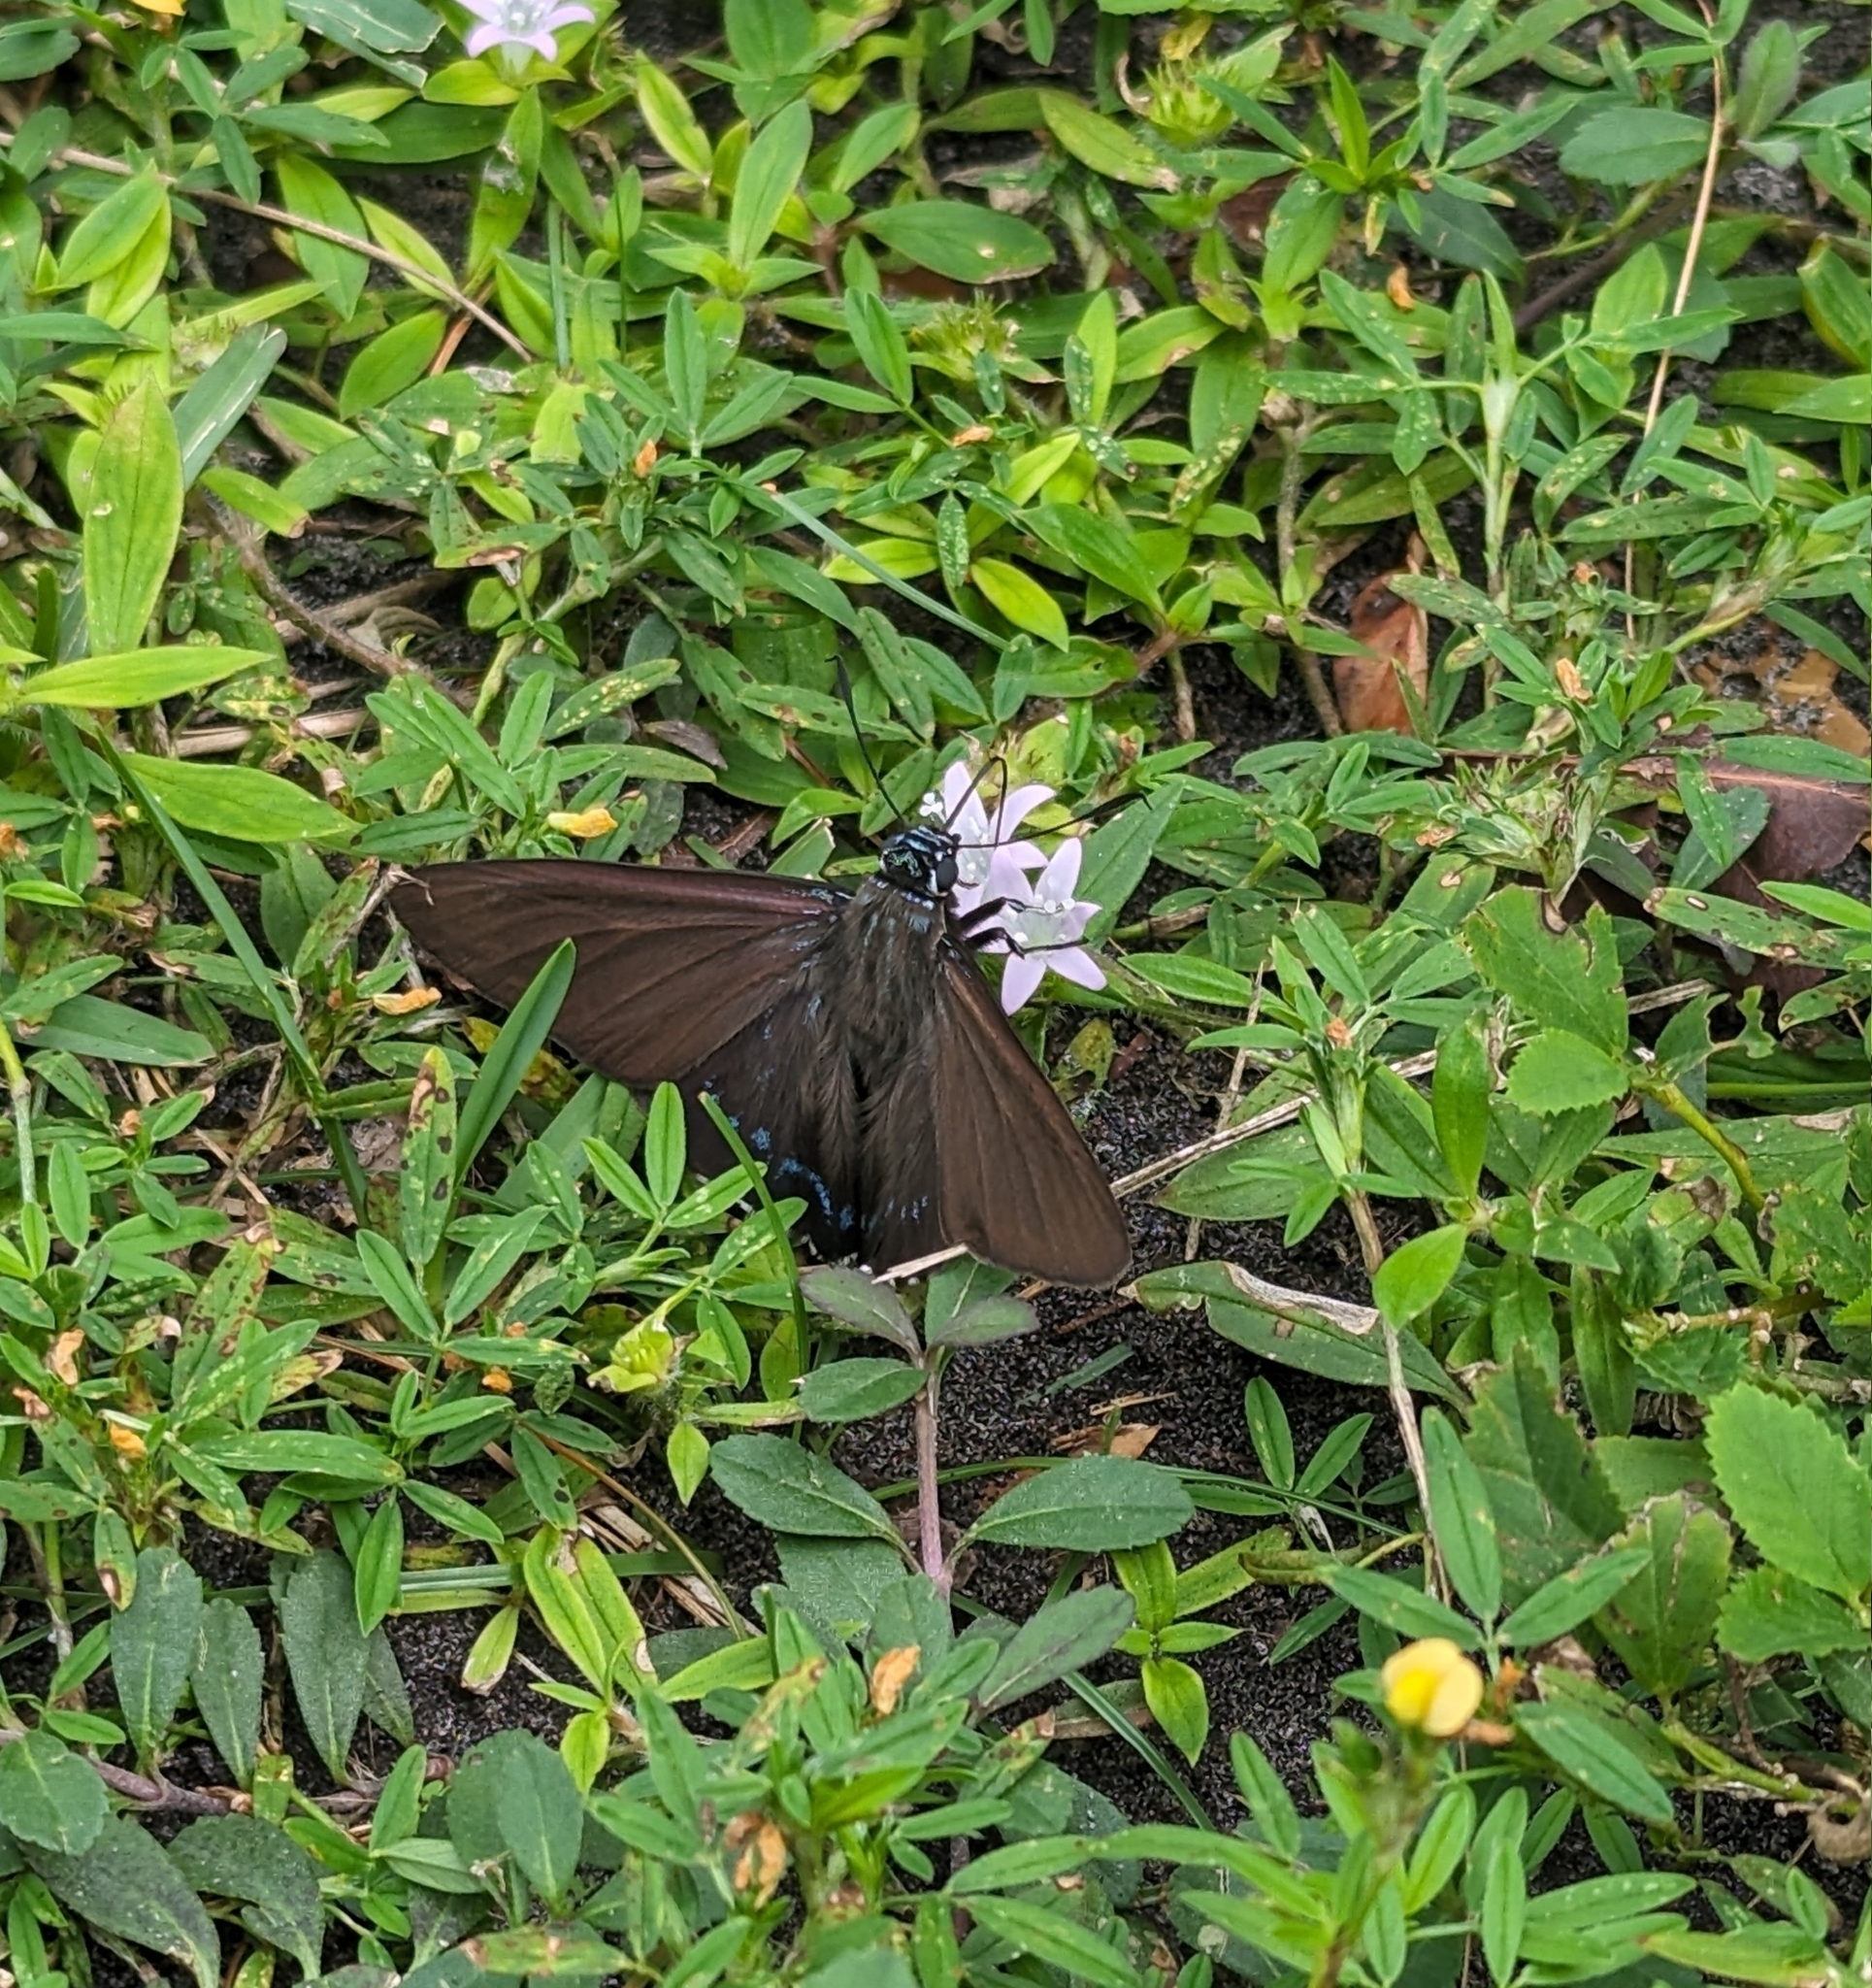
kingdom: Animalia
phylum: Arthropoda
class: Insecta
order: Lepidoptera
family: Hesperiidae
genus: Phocides
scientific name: Phocides pigmalion
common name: Mangrove skipper
